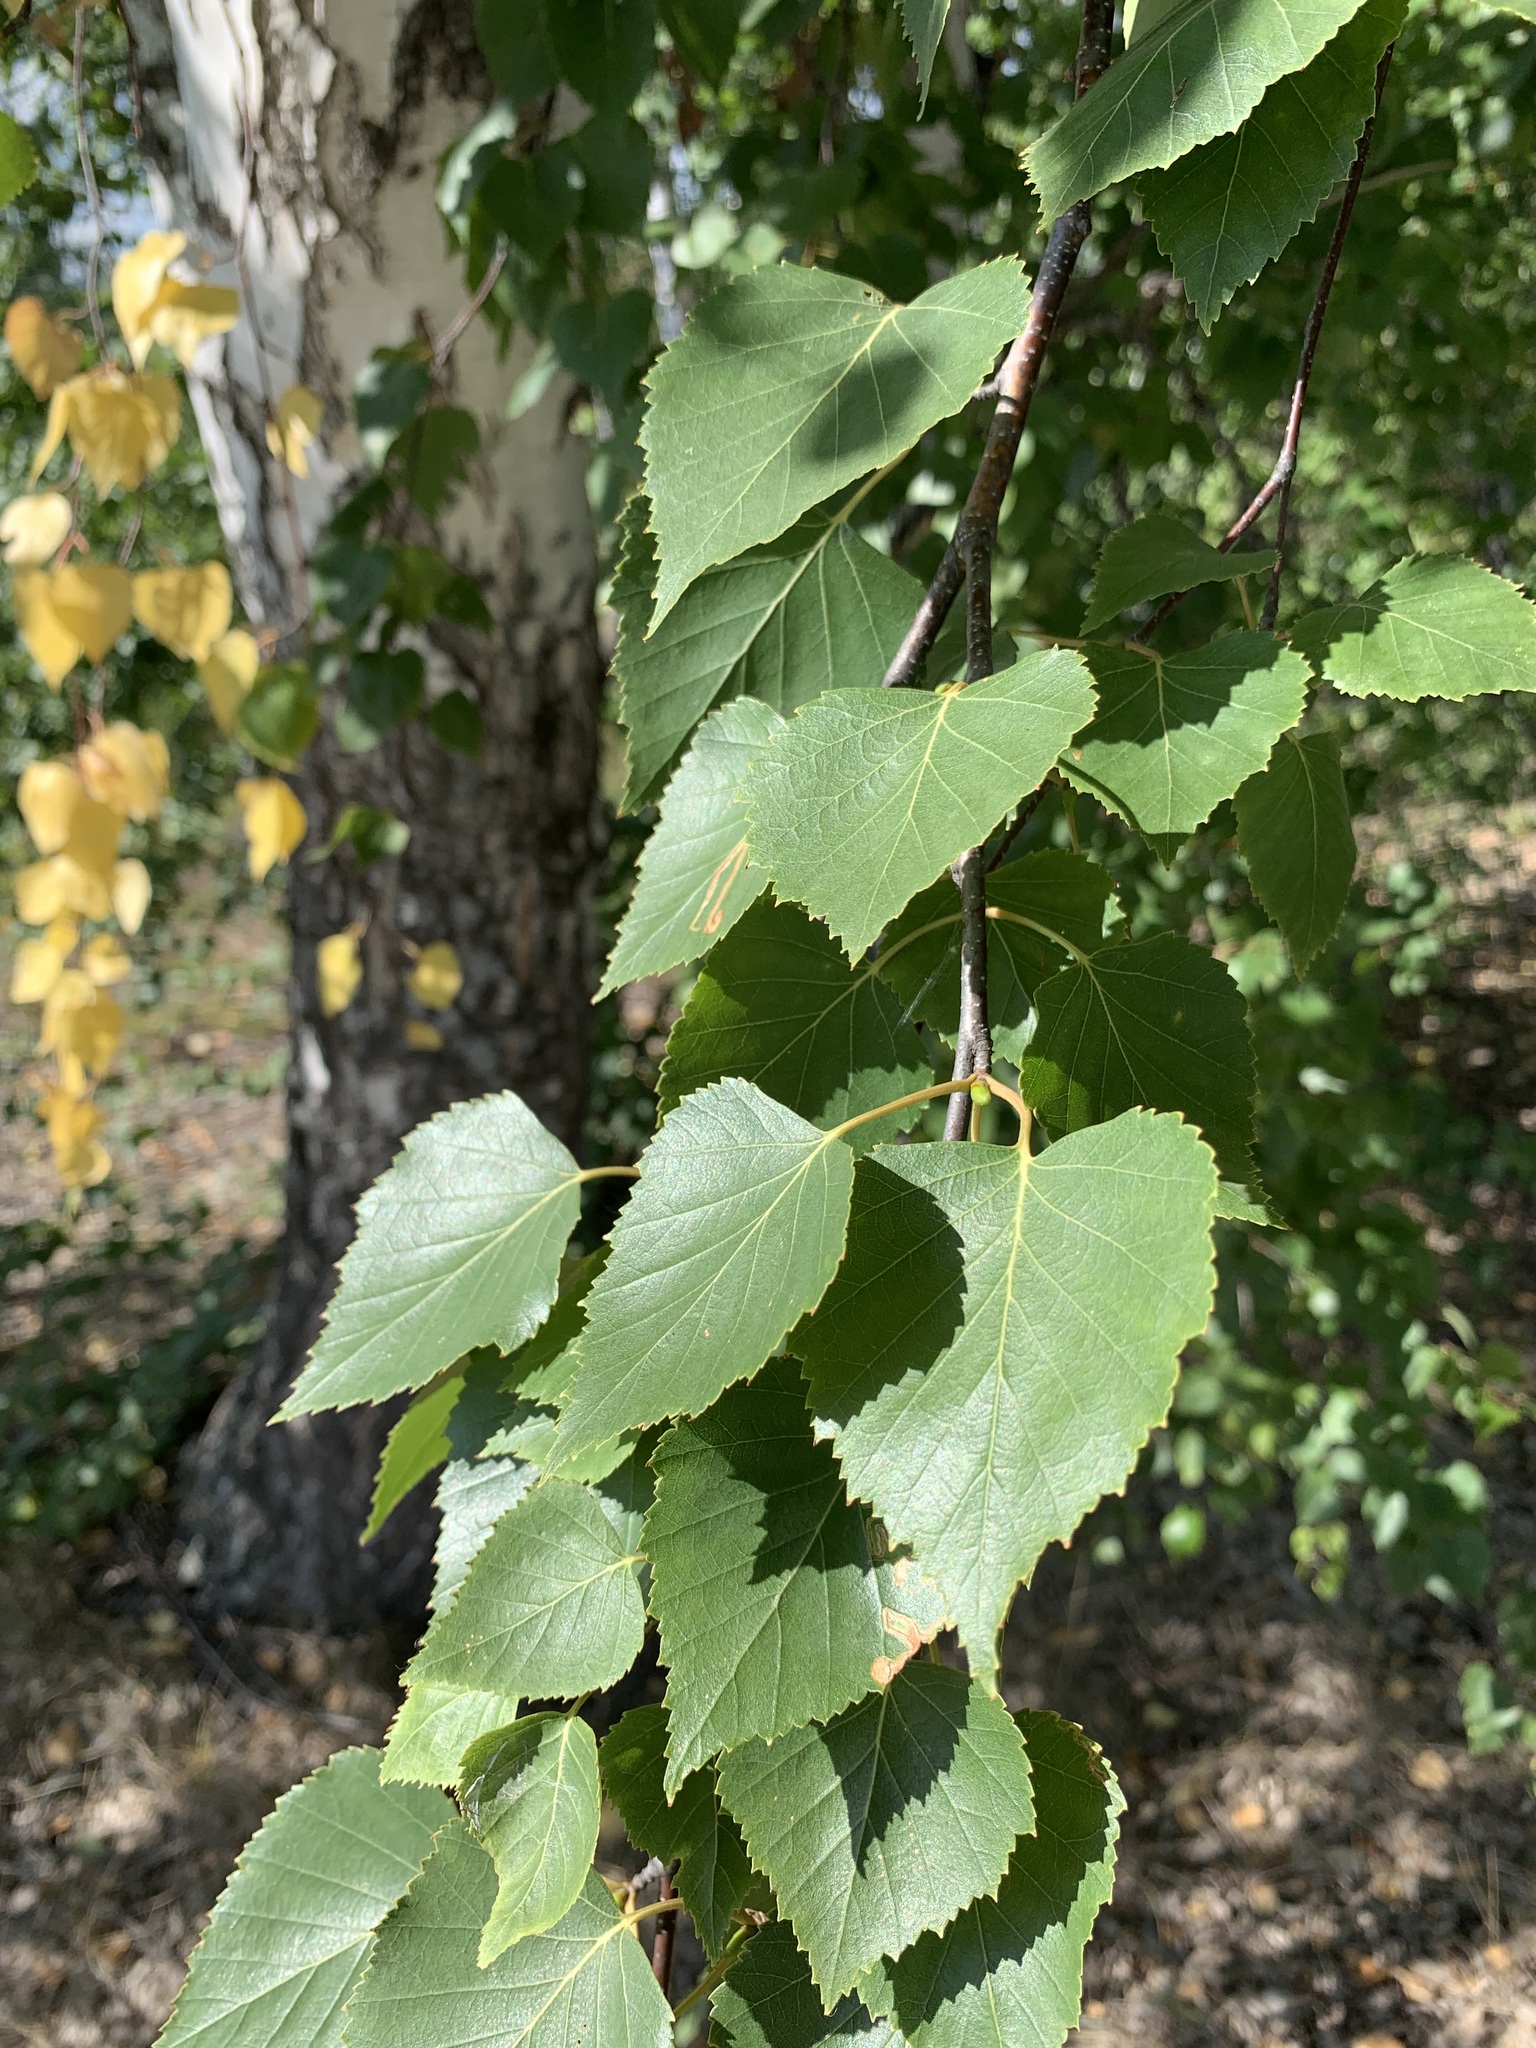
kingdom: Plantae
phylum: Tracheophyta
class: Magnoliopsida
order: Fagales
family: Betulaceae
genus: Betula
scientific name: Betula pendula
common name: Silver birch
